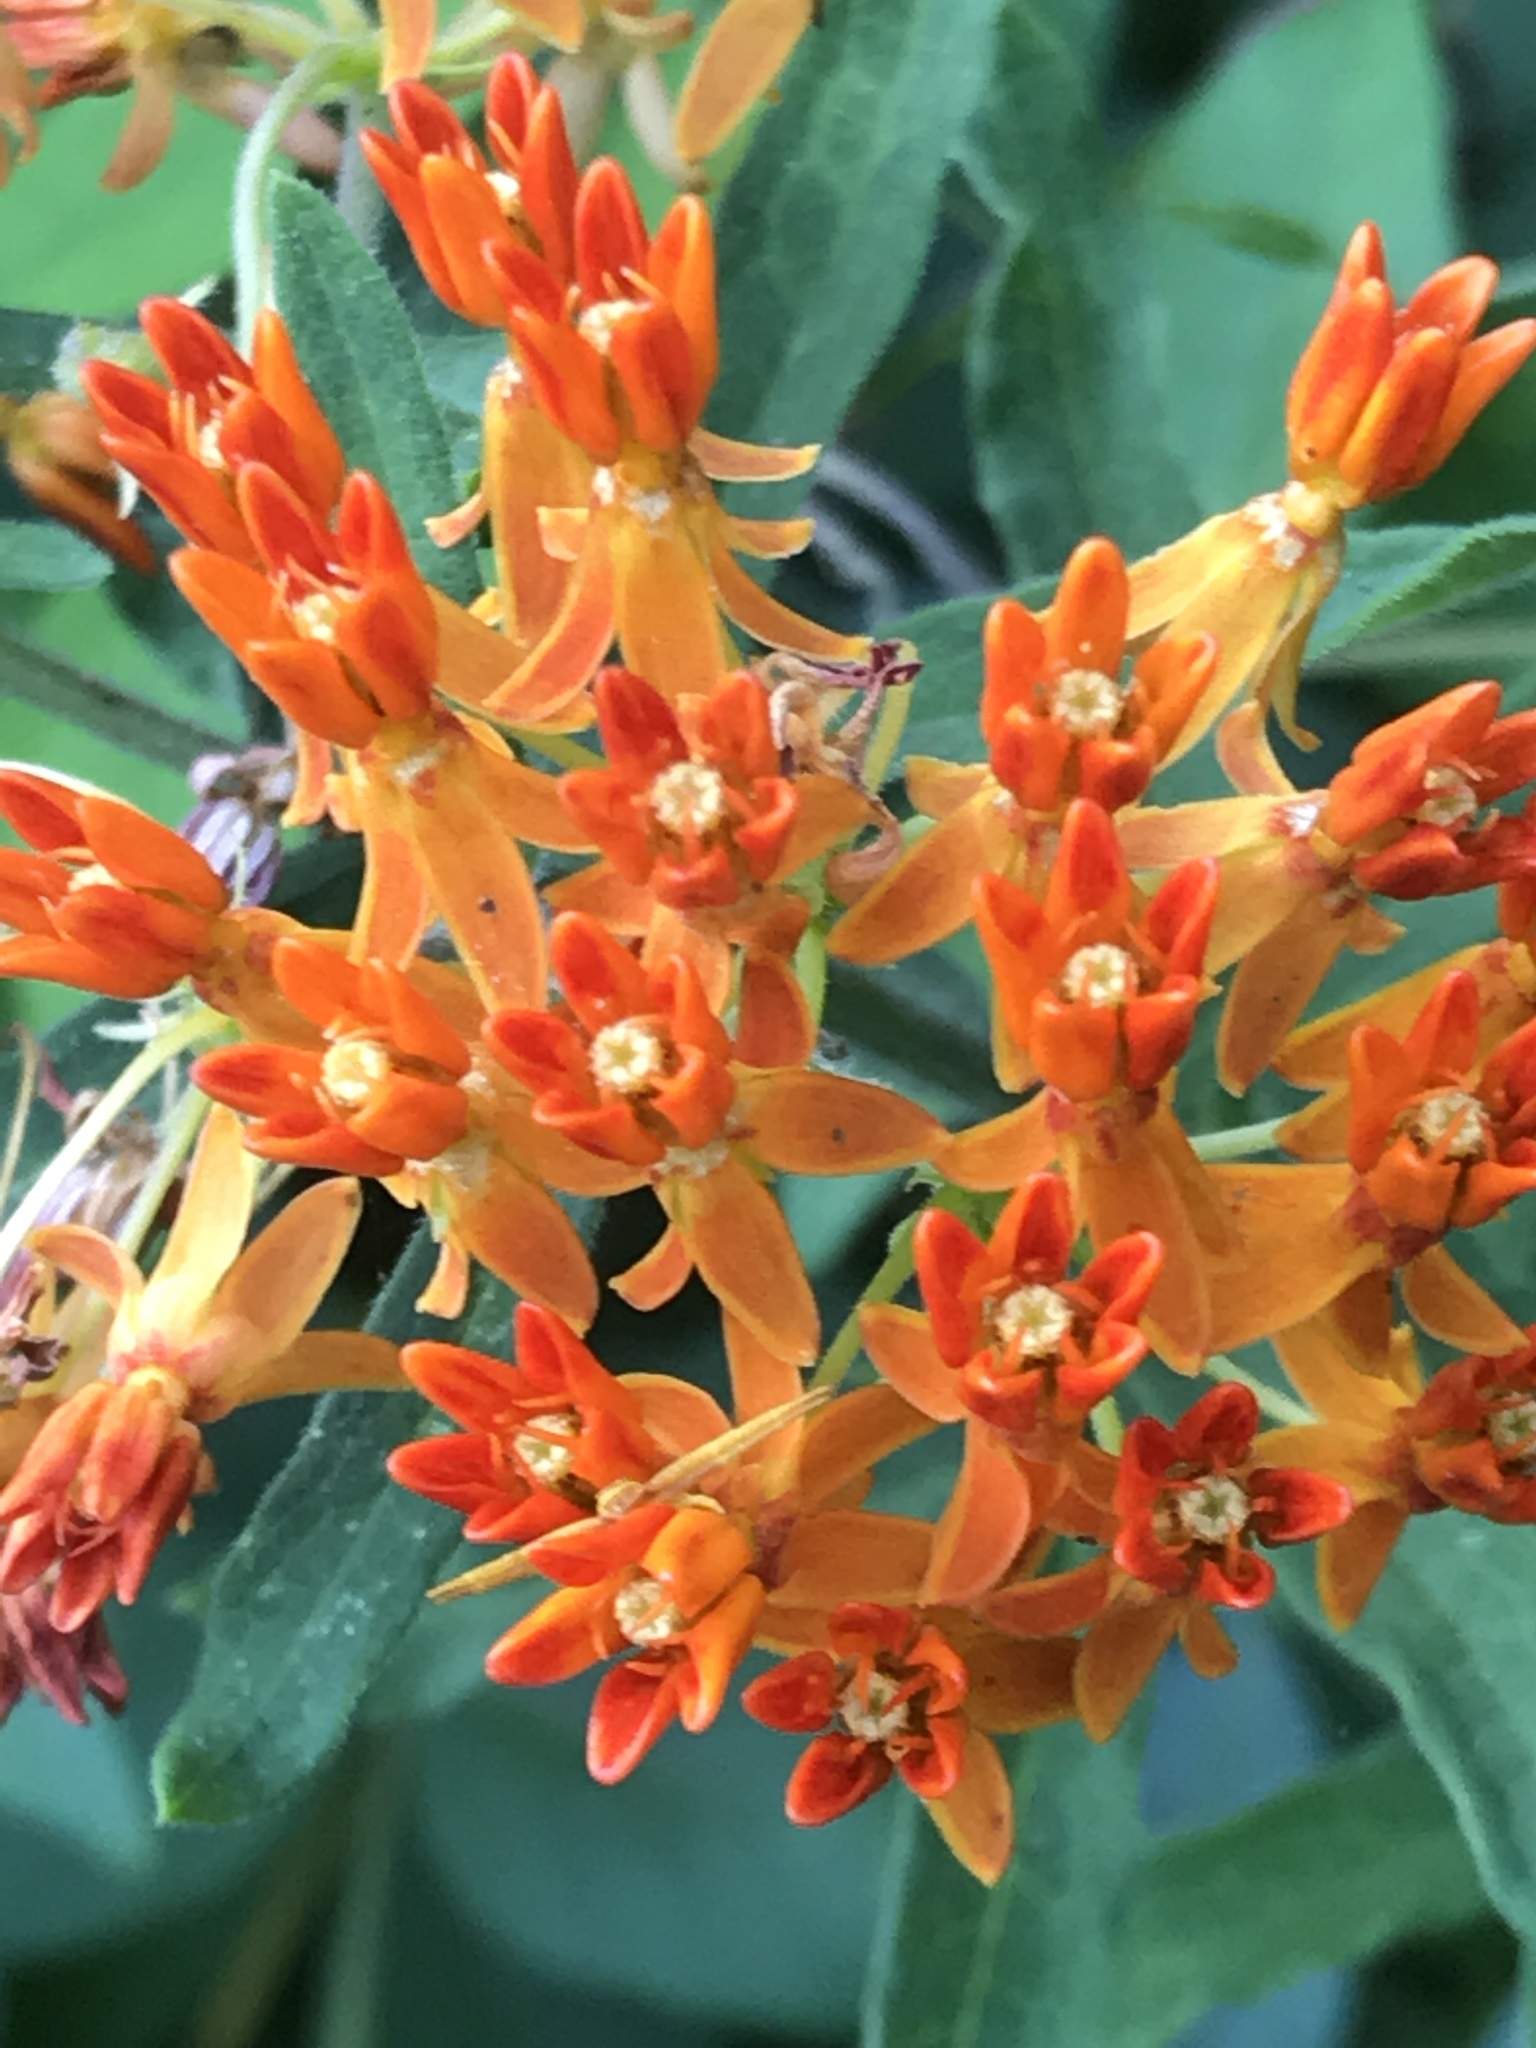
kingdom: Plantae
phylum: Tracheophyta
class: Magnoliopsida
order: Gentianales
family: Apocynaceae
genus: Asclepias
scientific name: Asclepias tuberosa
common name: Butterfly milkweed
